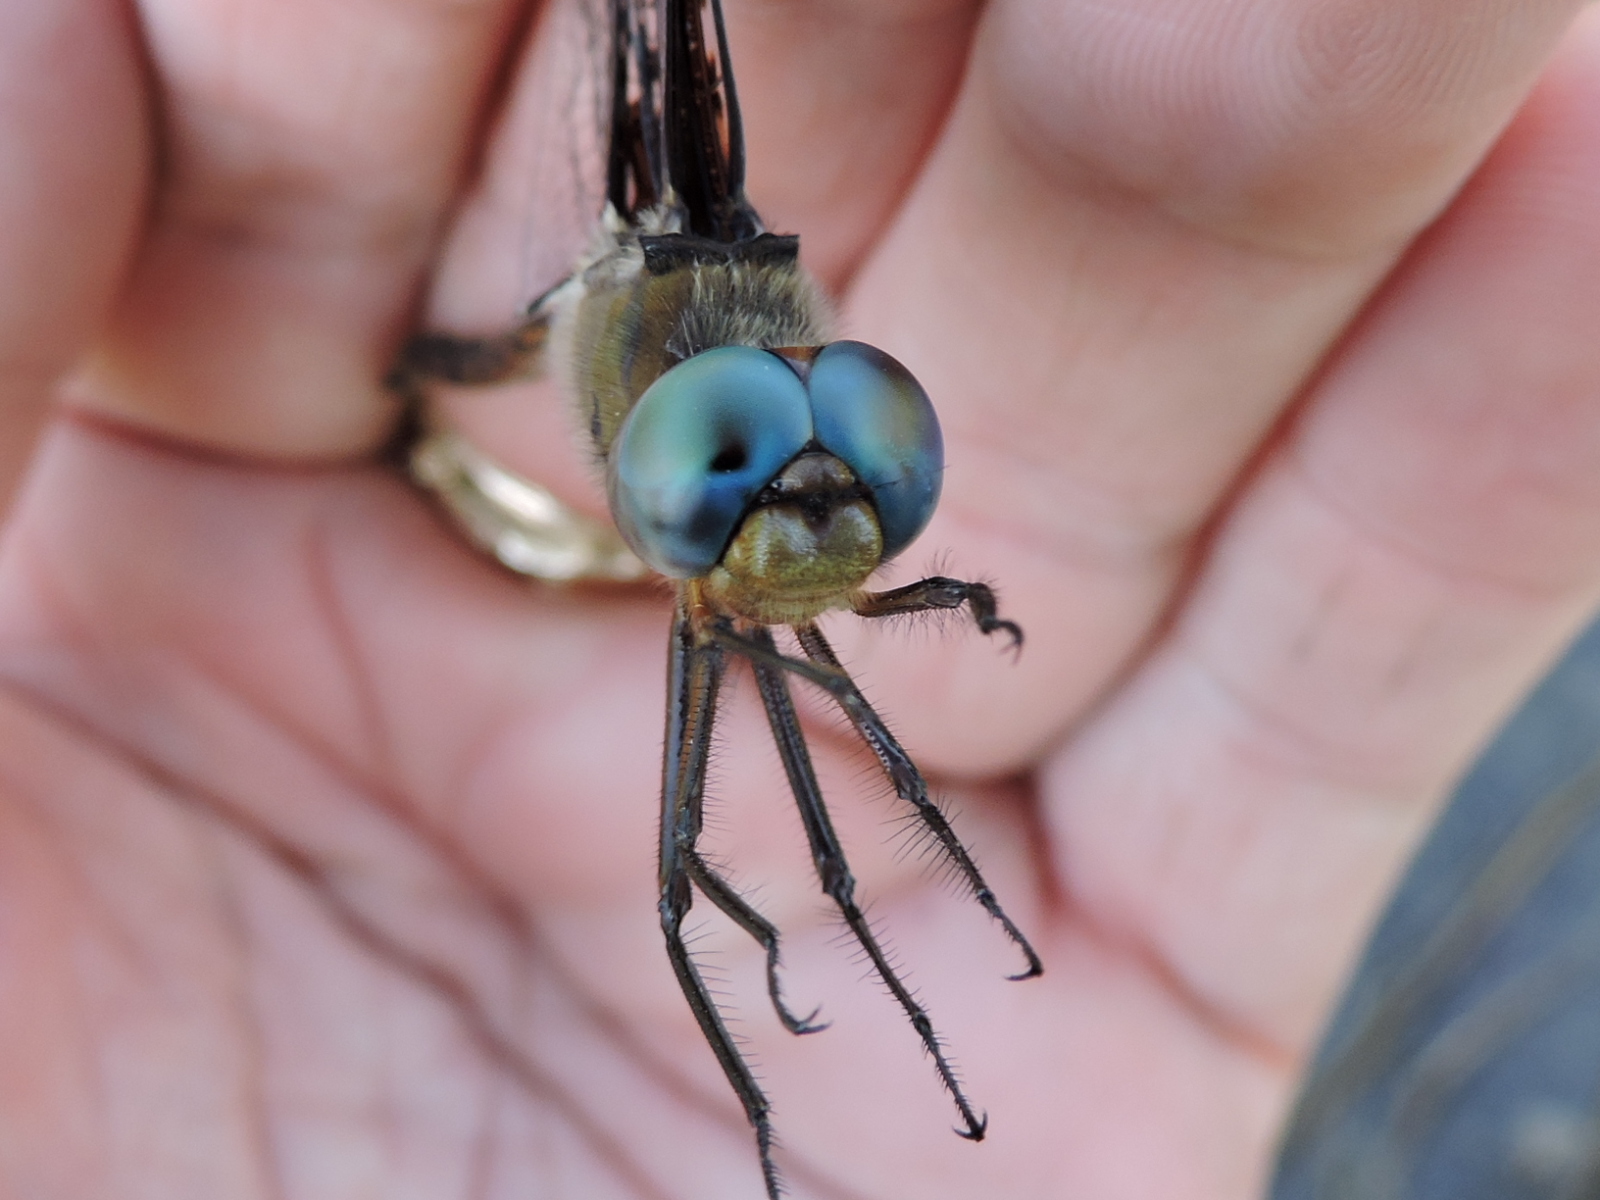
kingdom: Animalia
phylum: Arthropoda
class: Insecta
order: Odonata
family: Corduliidae
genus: Epitheca
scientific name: Epitheca princeps
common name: Prince baskettail
